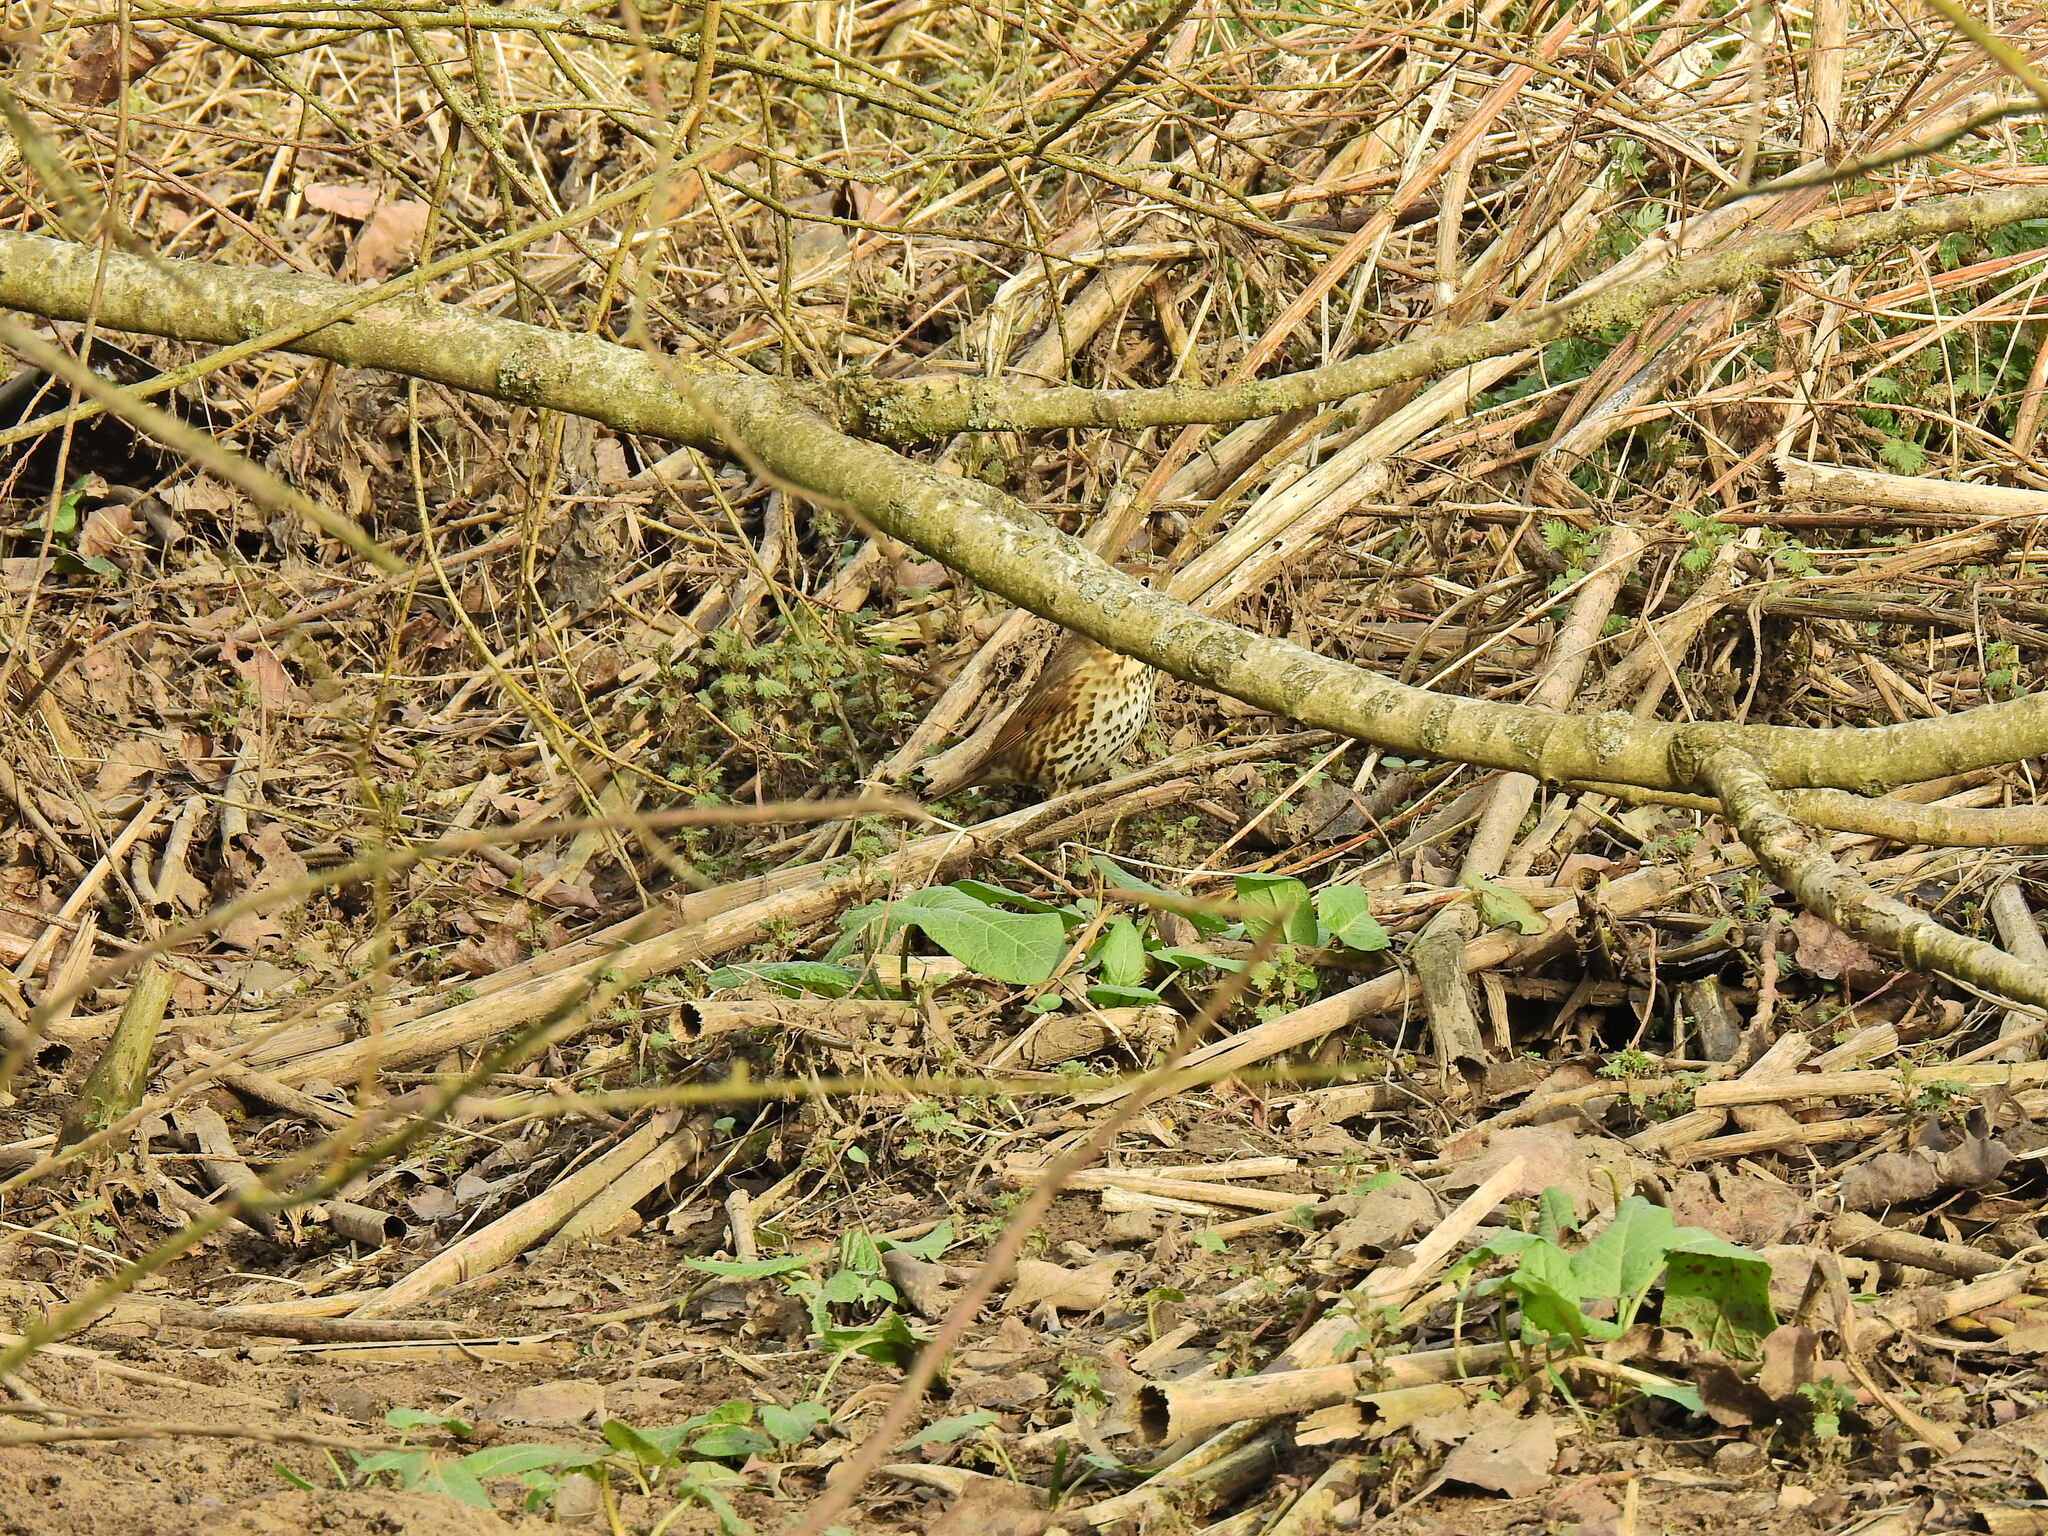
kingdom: Animalia
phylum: Chordata
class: Aves
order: Passeriformes
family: Turdidae
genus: Turdus
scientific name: Turdus philomelos
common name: Song thrush
